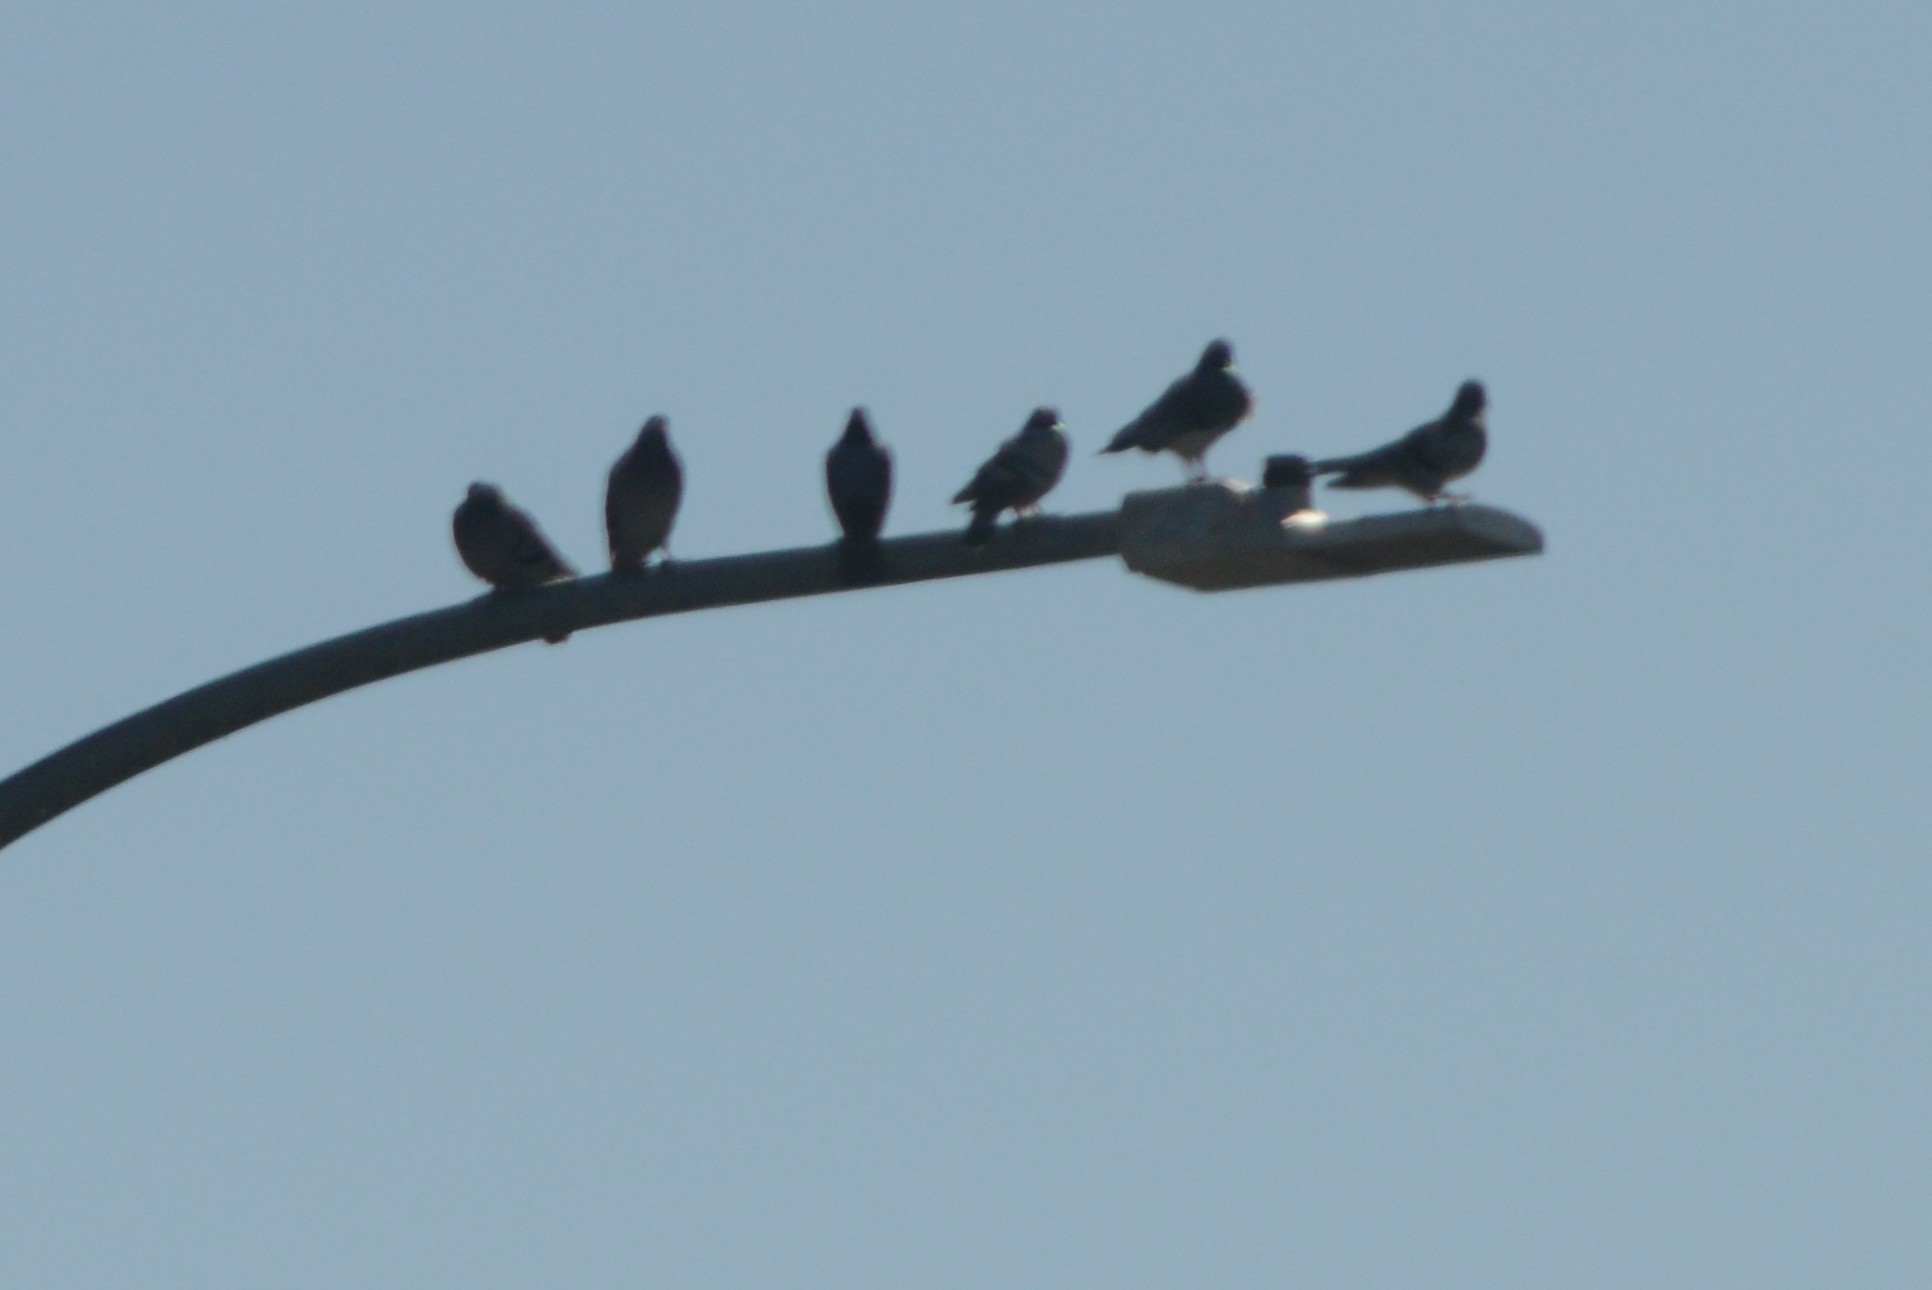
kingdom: Animalia
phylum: Chordata
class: Aves
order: Columbiformes
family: Columbidae
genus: Columba
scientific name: Columba livia
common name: Rock pigeon
